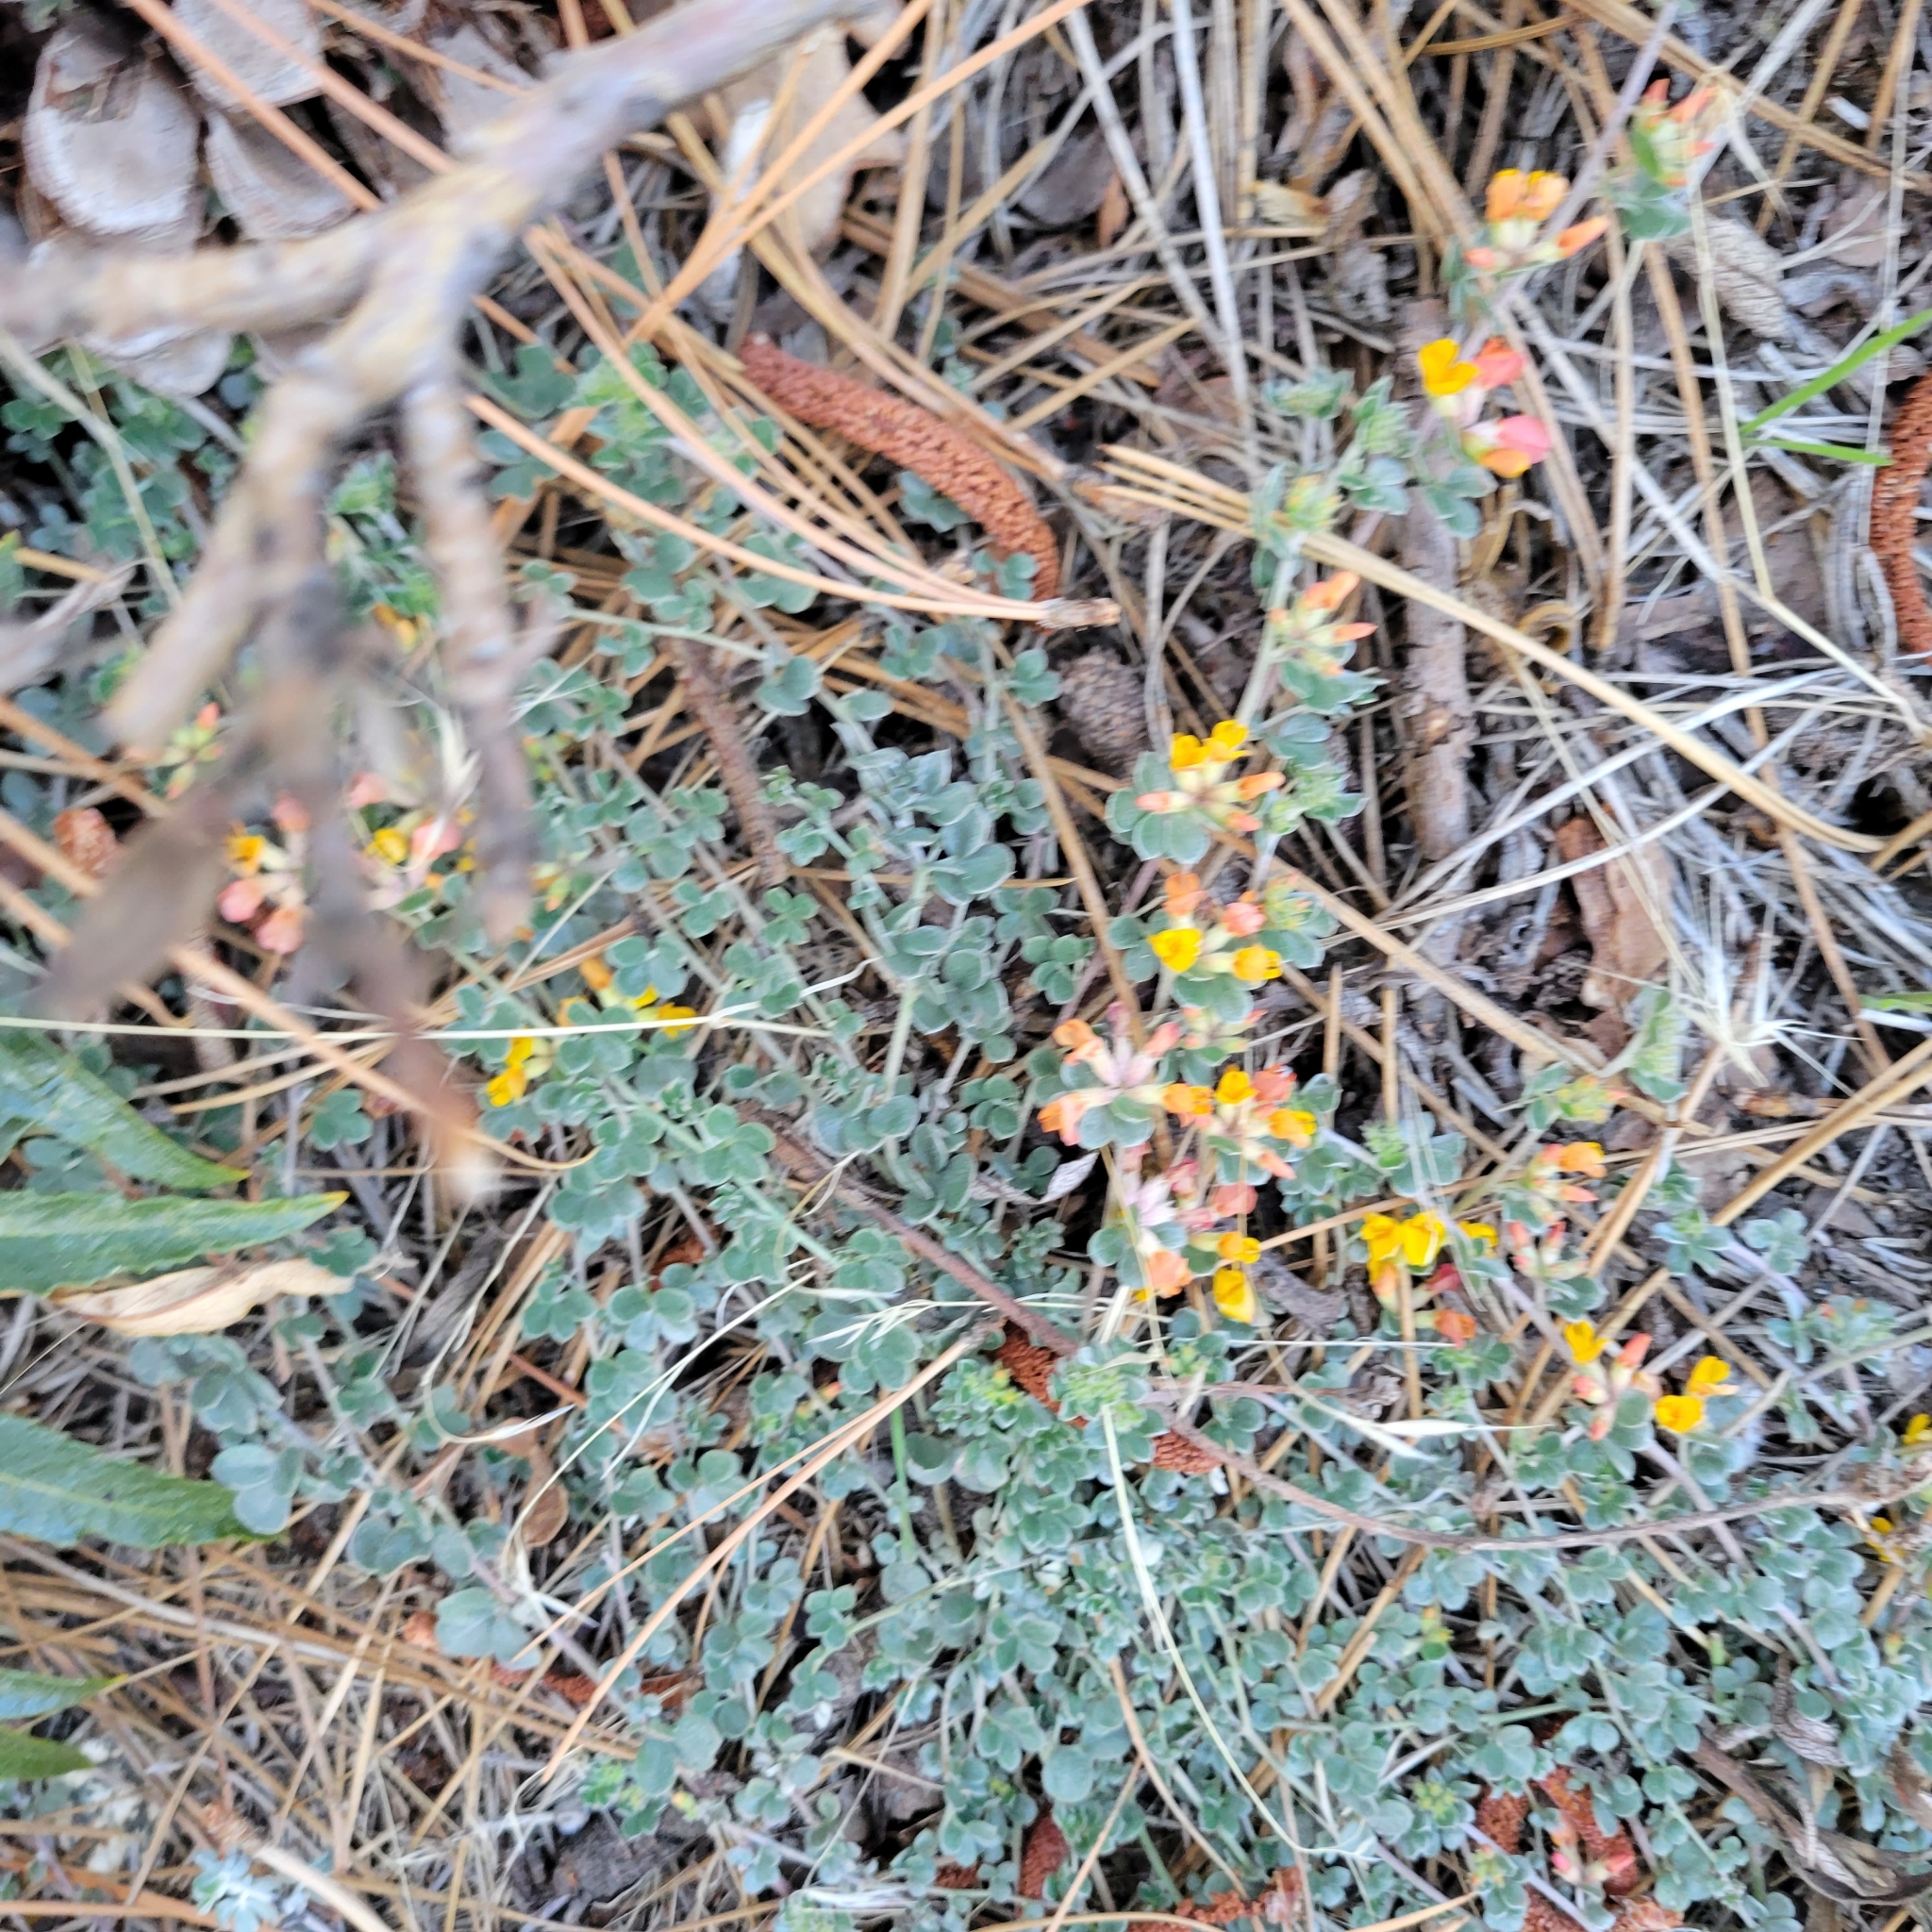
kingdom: Plantae
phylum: Tracheophyta
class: Magnoliopsida
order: Fabales
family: Fabaceae
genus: Acmispon
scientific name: Acmispon argophyllus
